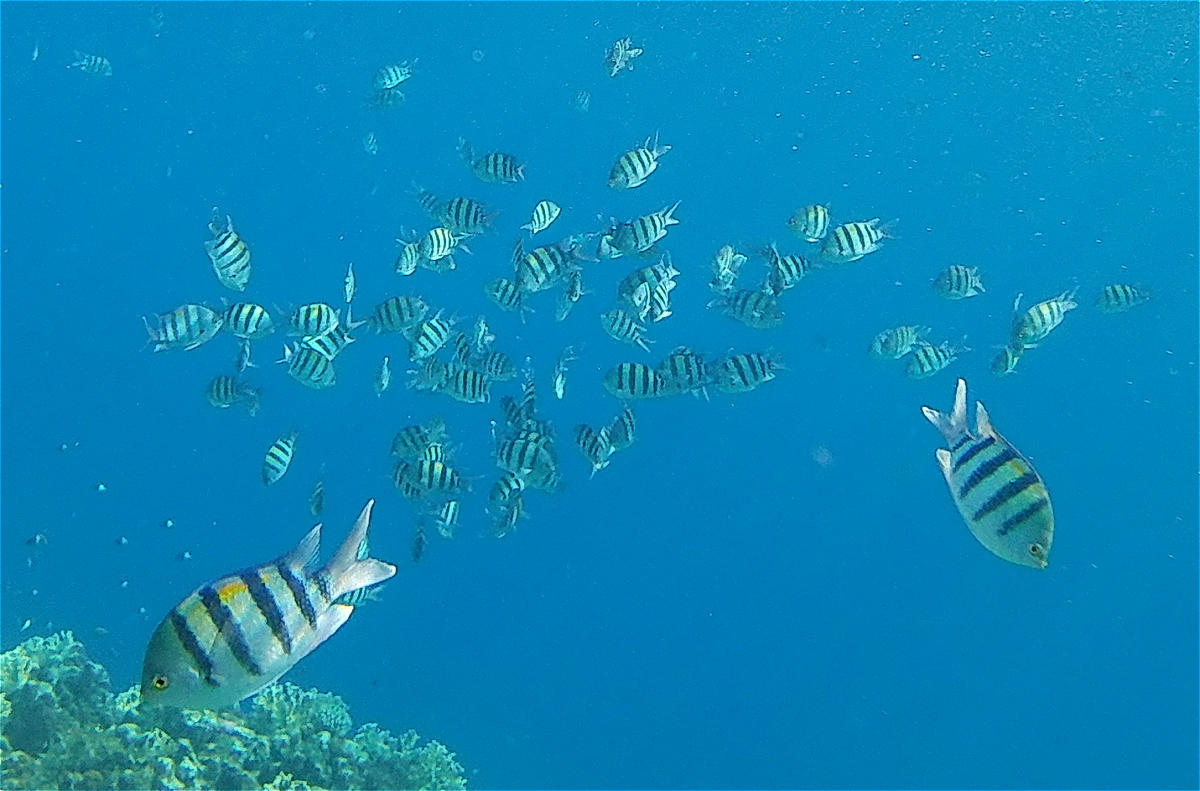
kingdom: Animalia
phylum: Chordata
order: Perciformes
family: Pomacentridae
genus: Abudefduf
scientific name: Abudefduf vaigiensis
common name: Indo-pacific sergeant
